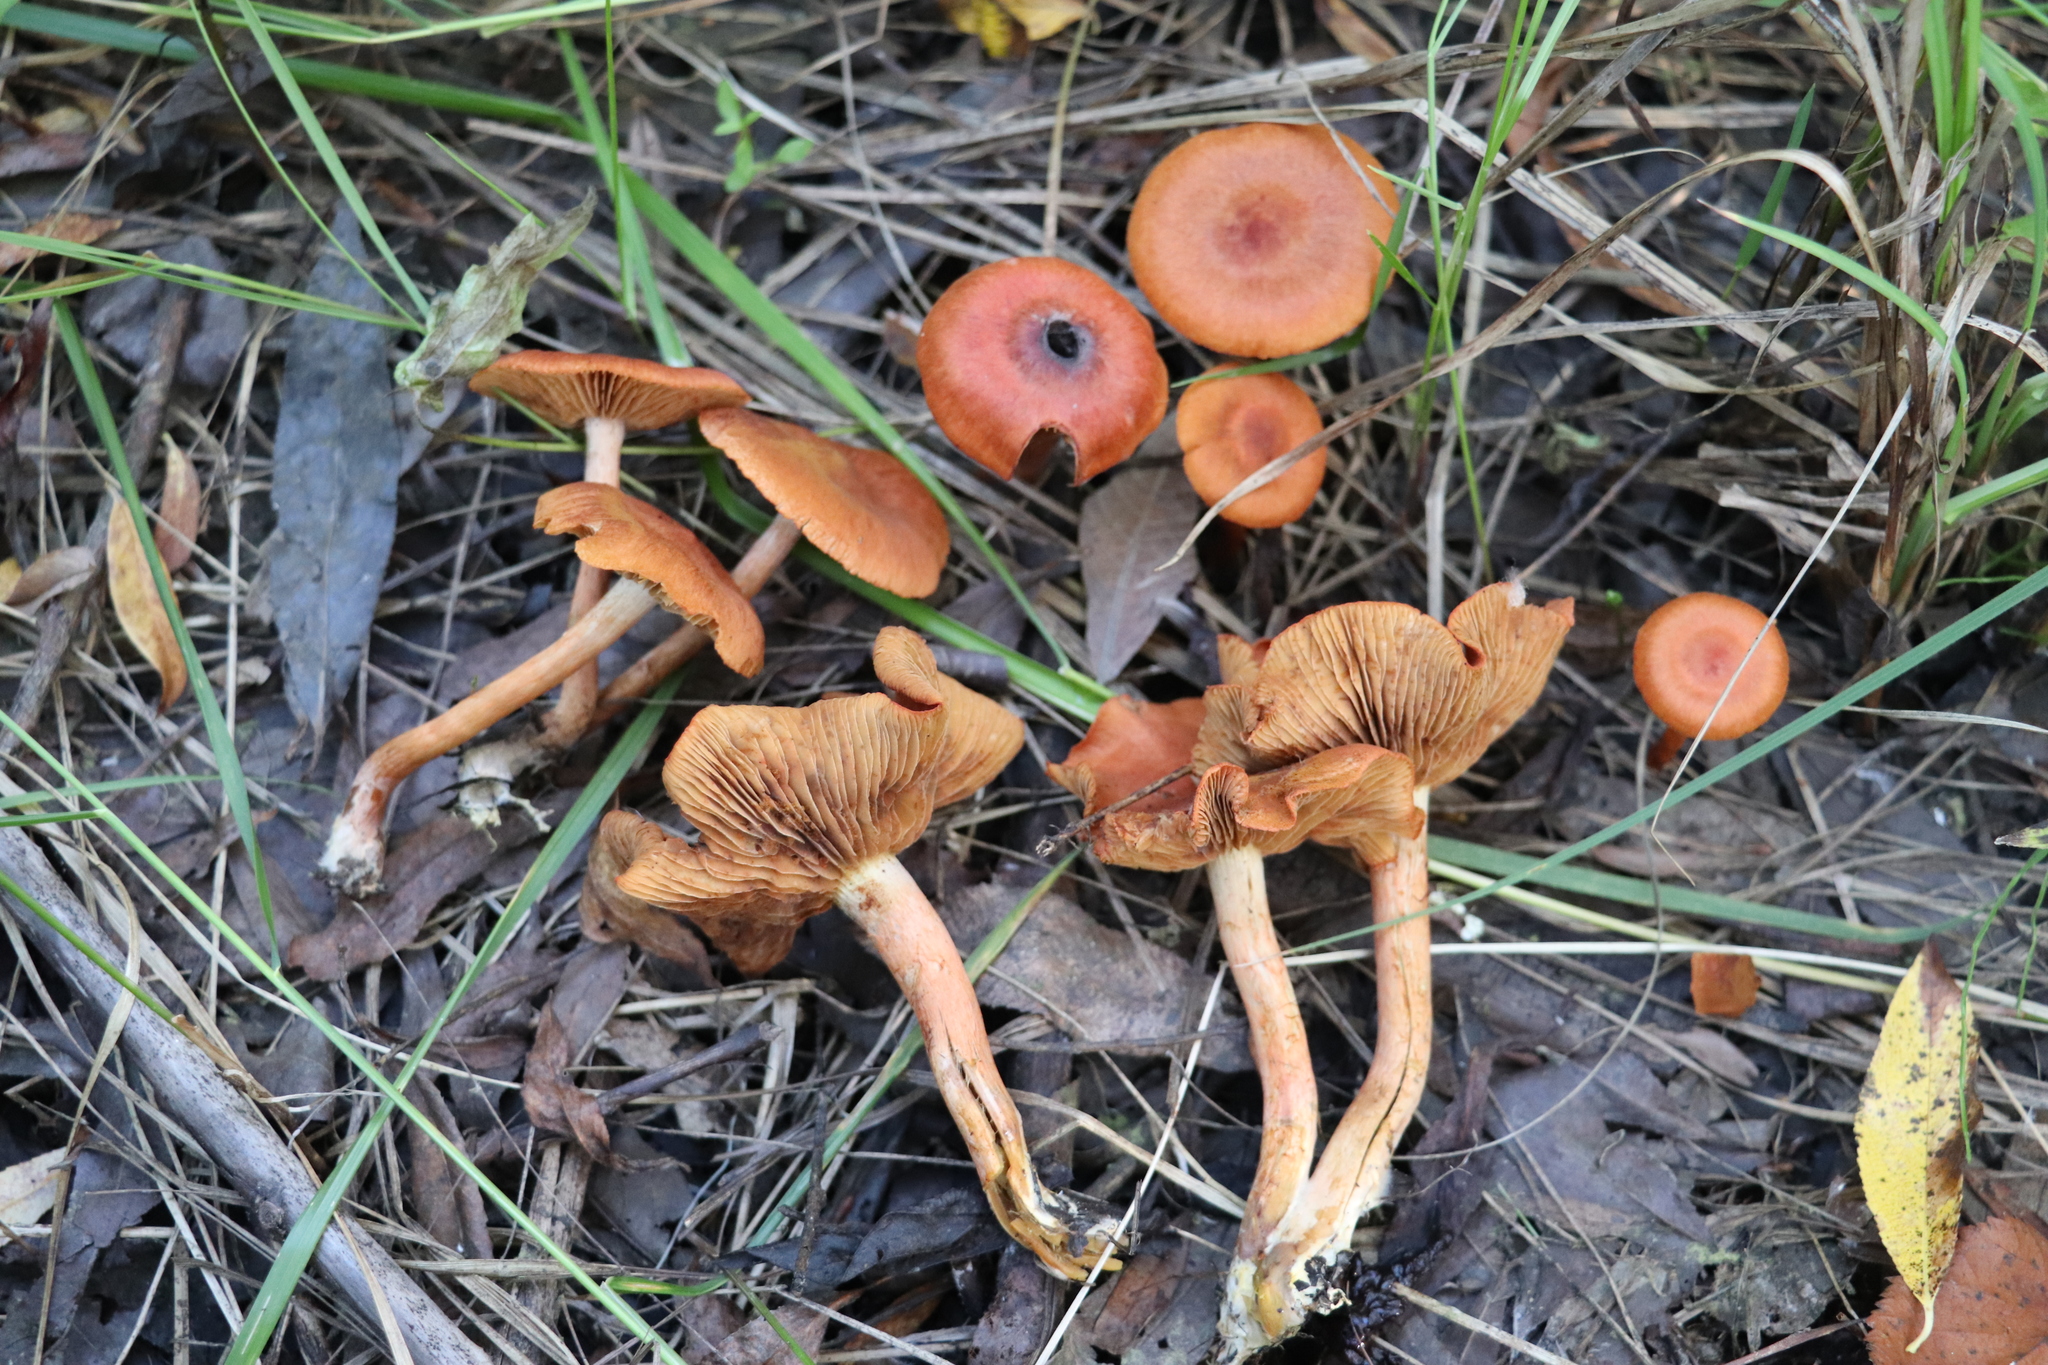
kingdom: Fungi
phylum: Basidiomycota
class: Agaricomycetes
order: Agaricales
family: Cortinariaceae
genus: Cortinarius
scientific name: Cortinarius uliginosus
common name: Marsh webcap
